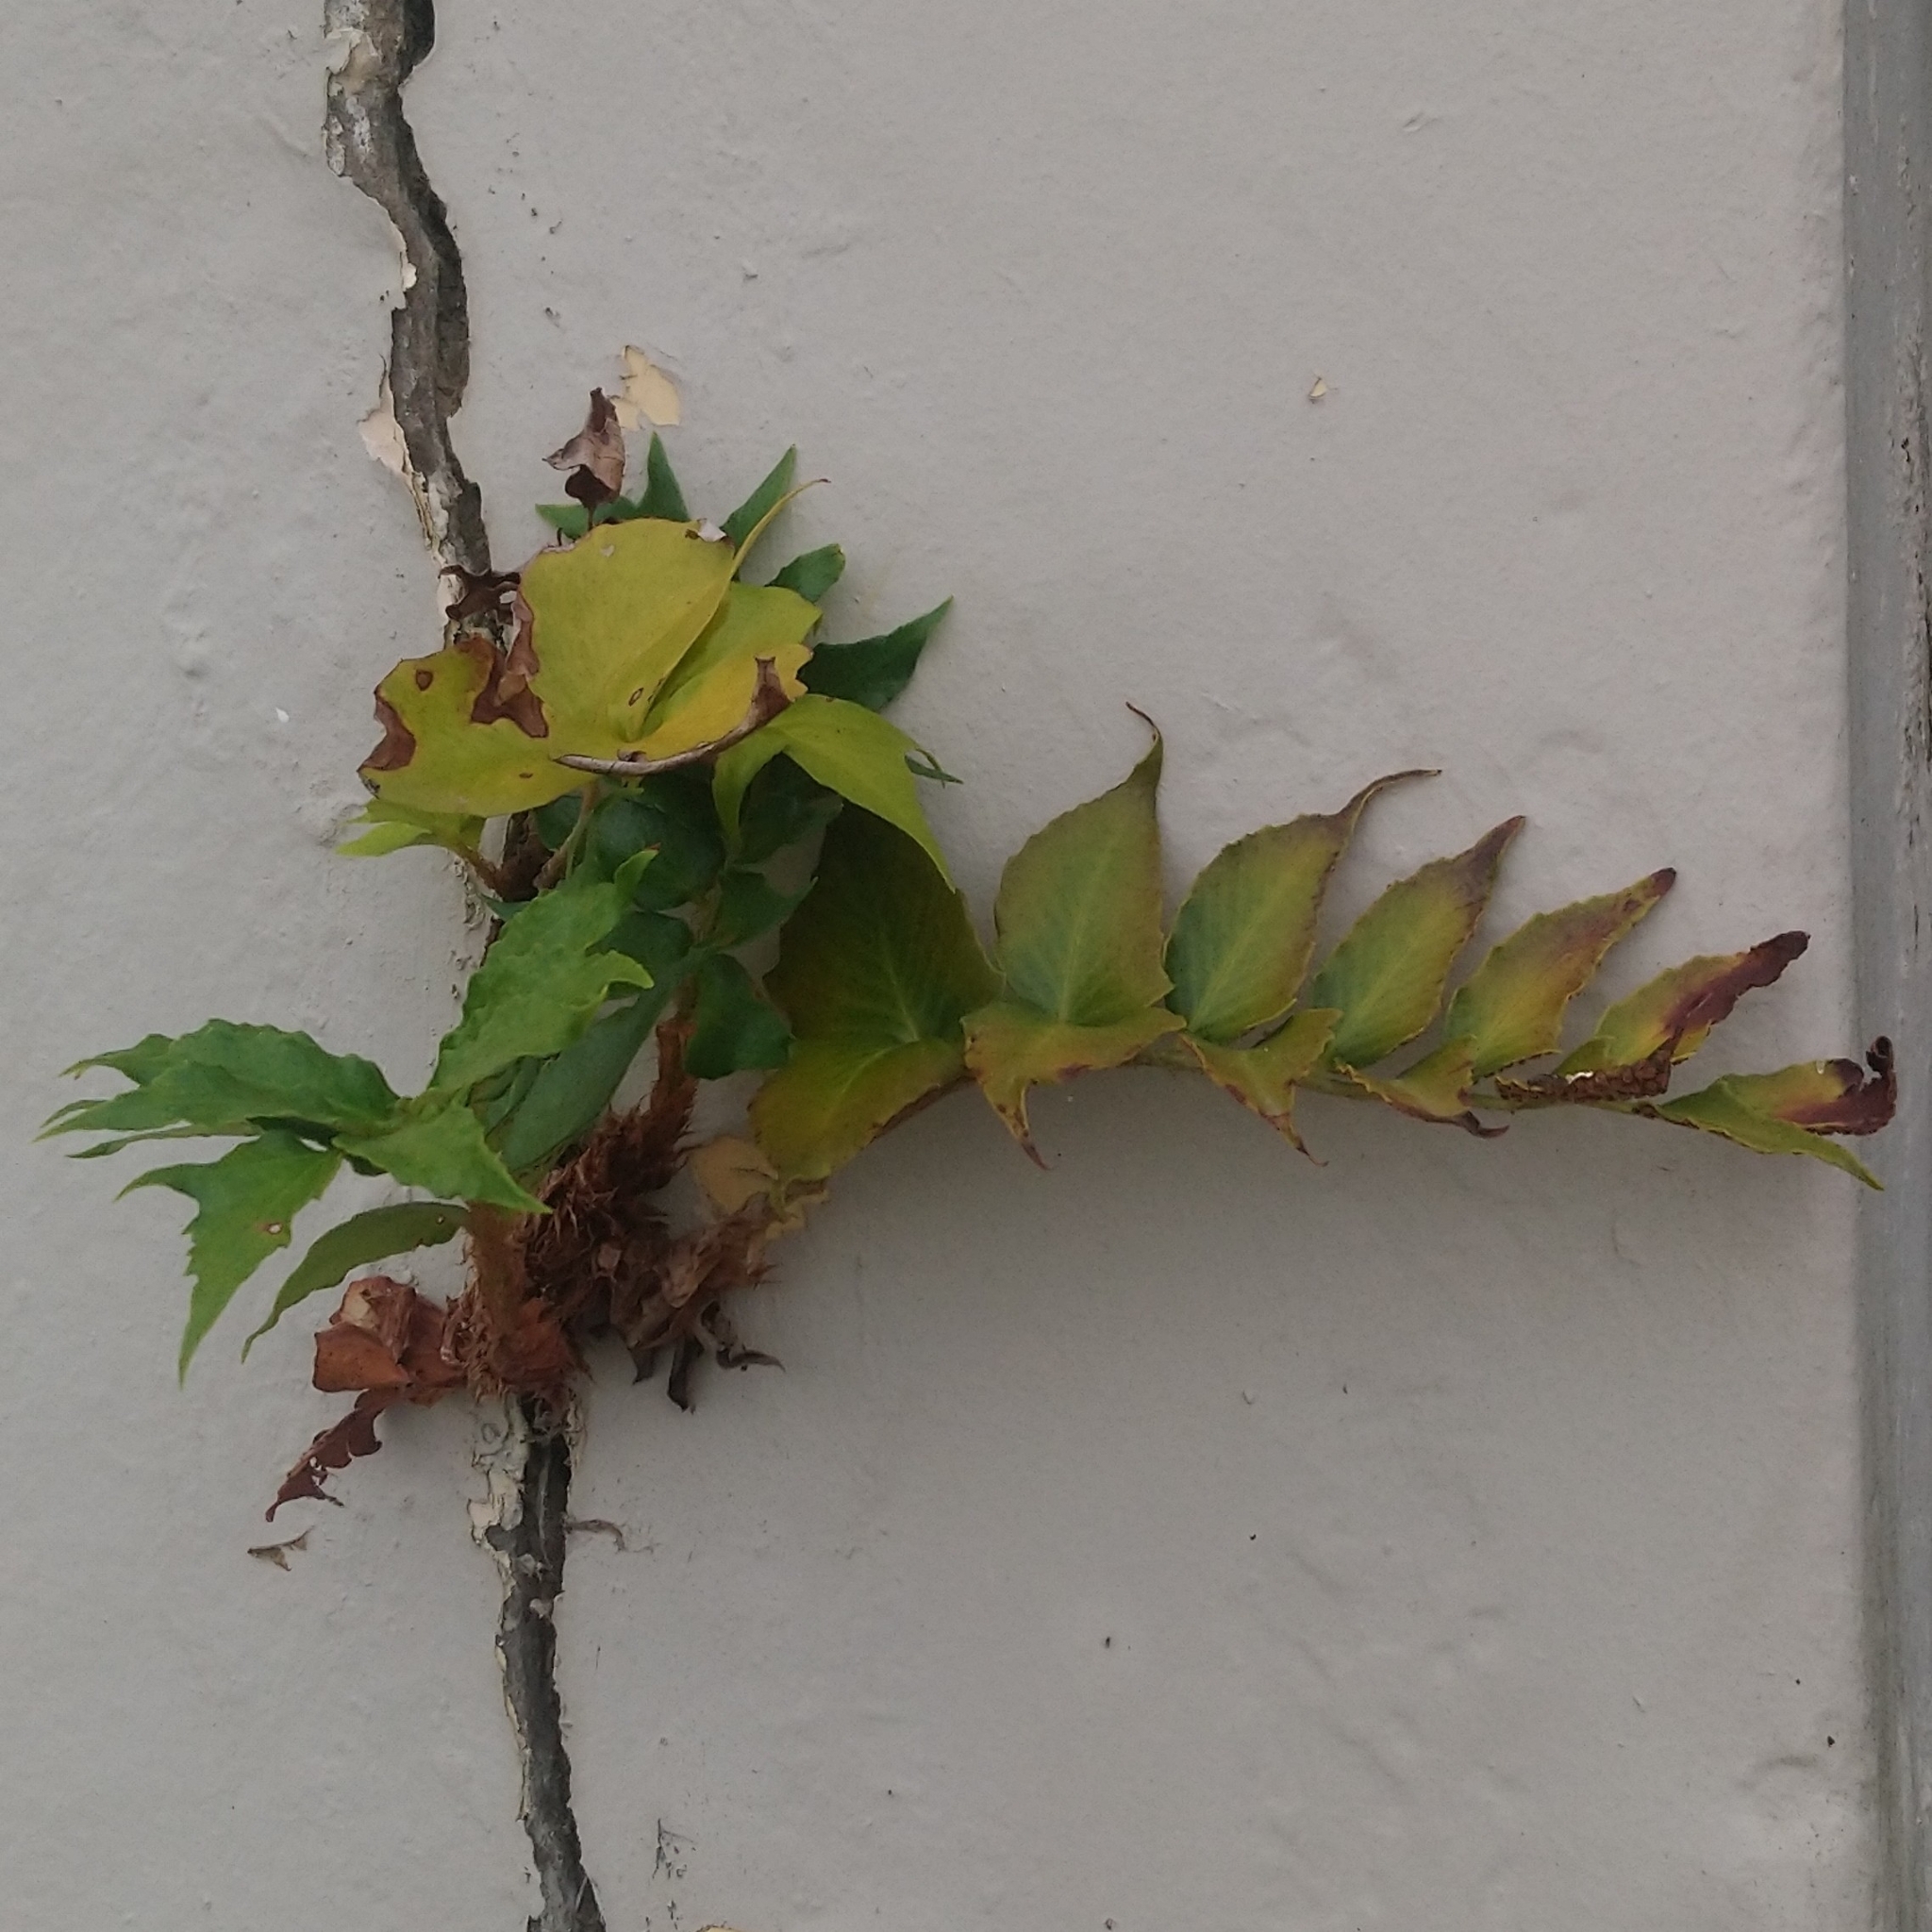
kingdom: Plantae
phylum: Tracheophyta
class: Polypodiopsida
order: Polypodiales
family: Dryopteridaceae
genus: Cyrtomium
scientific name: Cyrtomium falcatum
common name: House holly-fern
